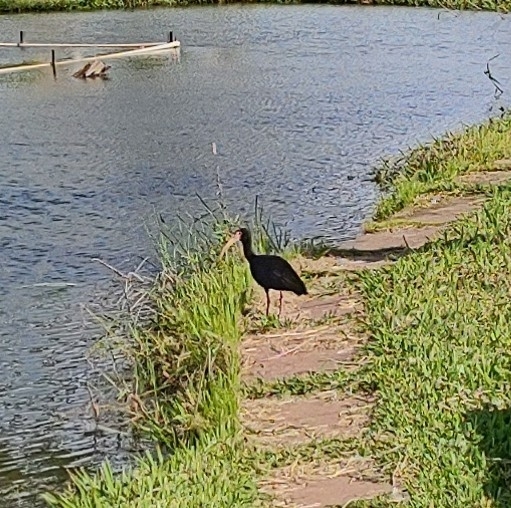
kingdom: Animalia
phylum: Chordata
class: Aves
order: Pelecaniformes
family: Threskiornithidae
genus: Phimosus
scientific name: Phimosus infuscatus
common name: Bare-faced ibis
